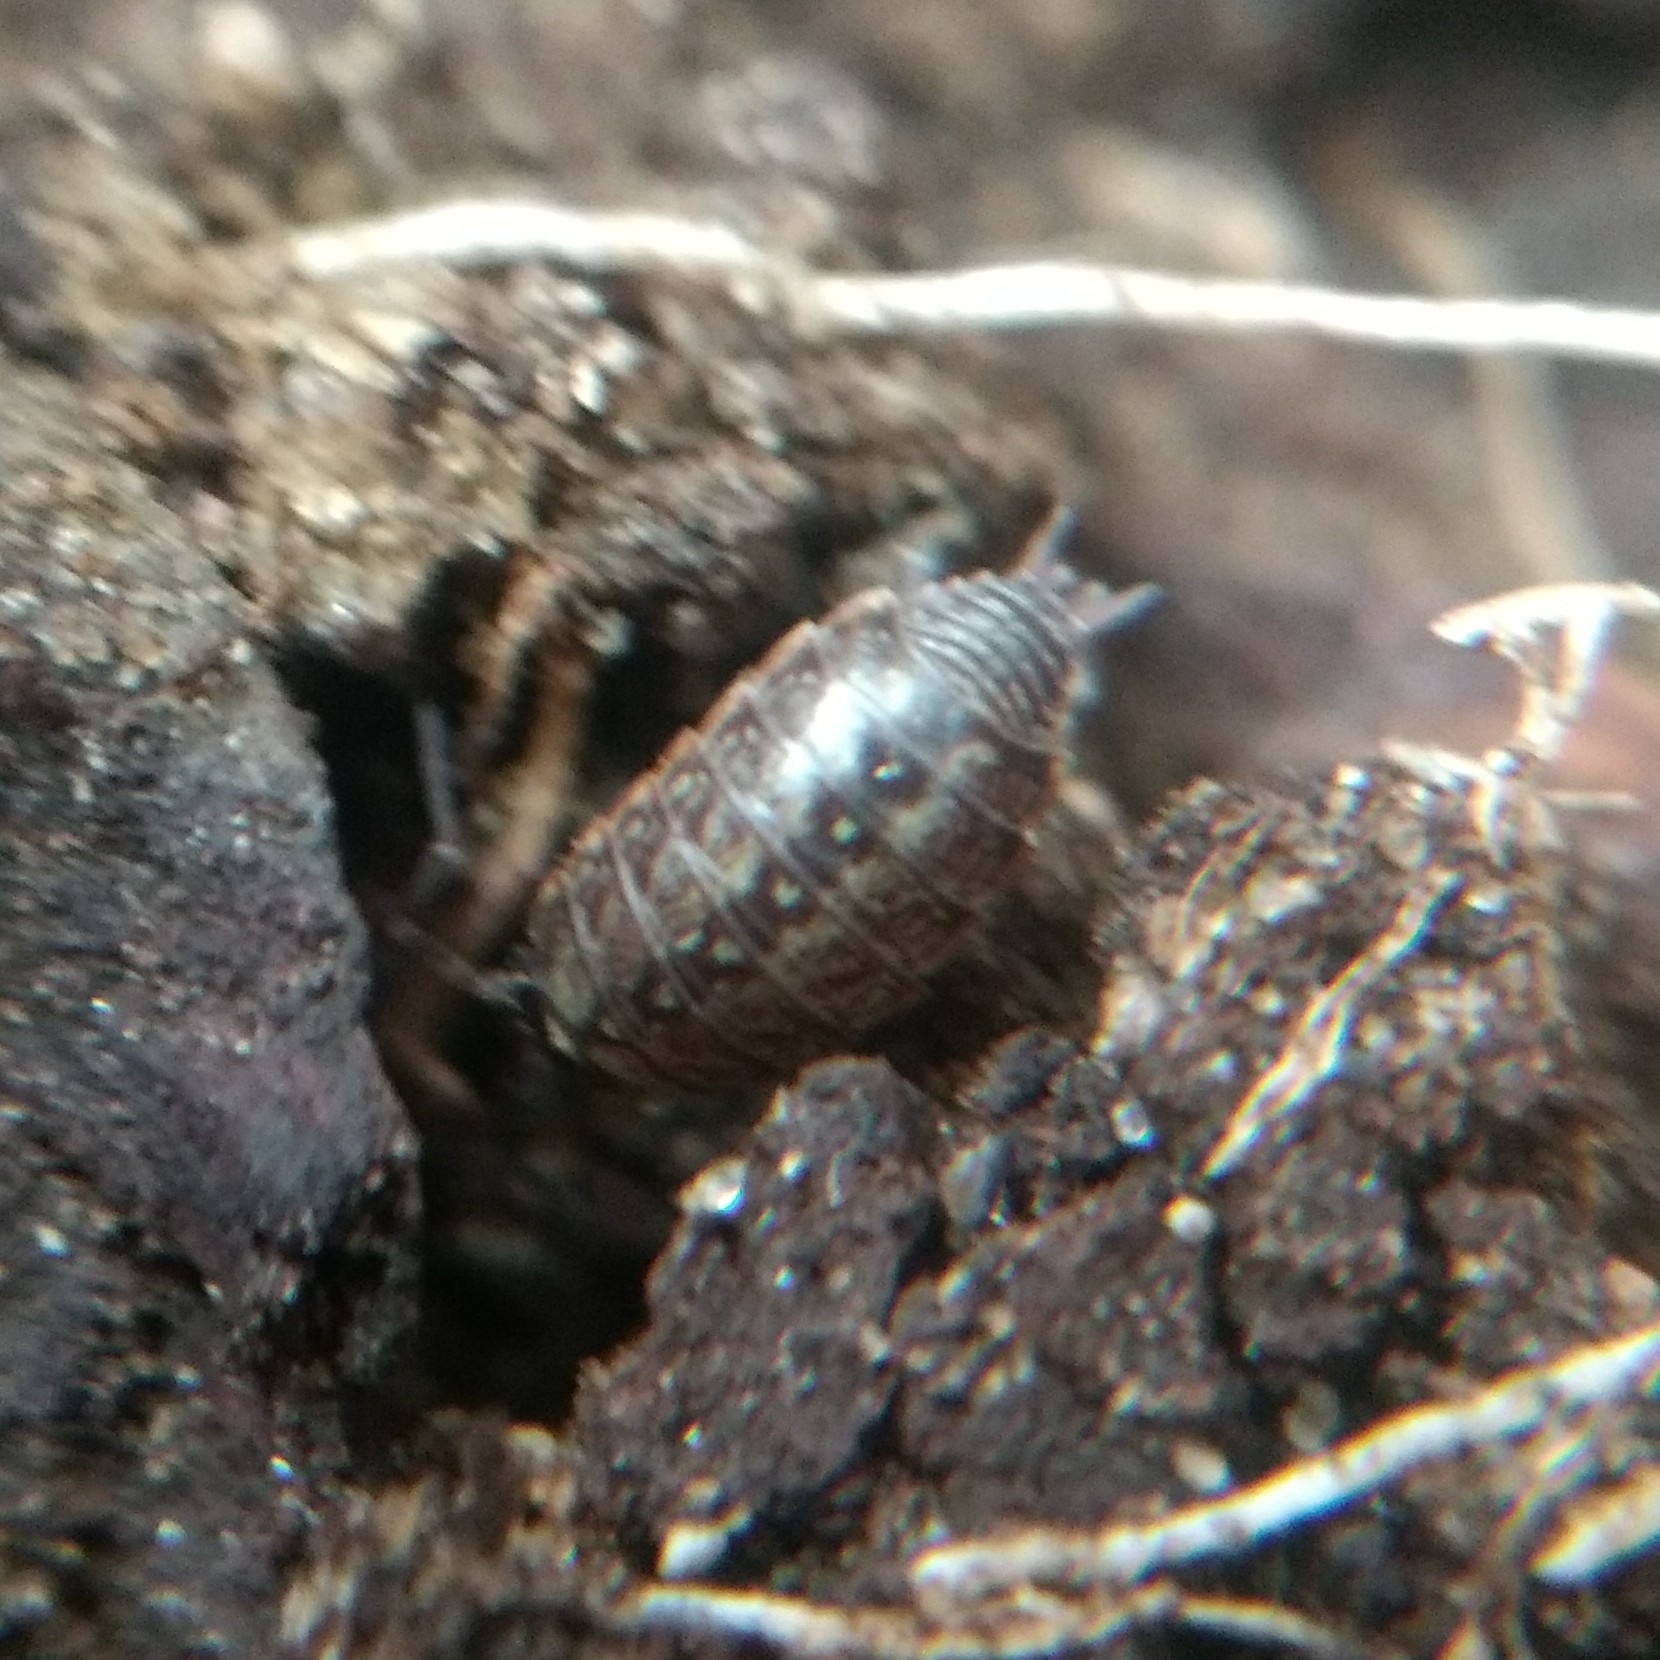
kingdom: Animalia
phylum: Arthropoda
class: Malacostraca
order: Isopoda
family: Philosciidae
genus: Philoscia
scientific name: Philoscia muscorum
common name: Common striped woodlouse
